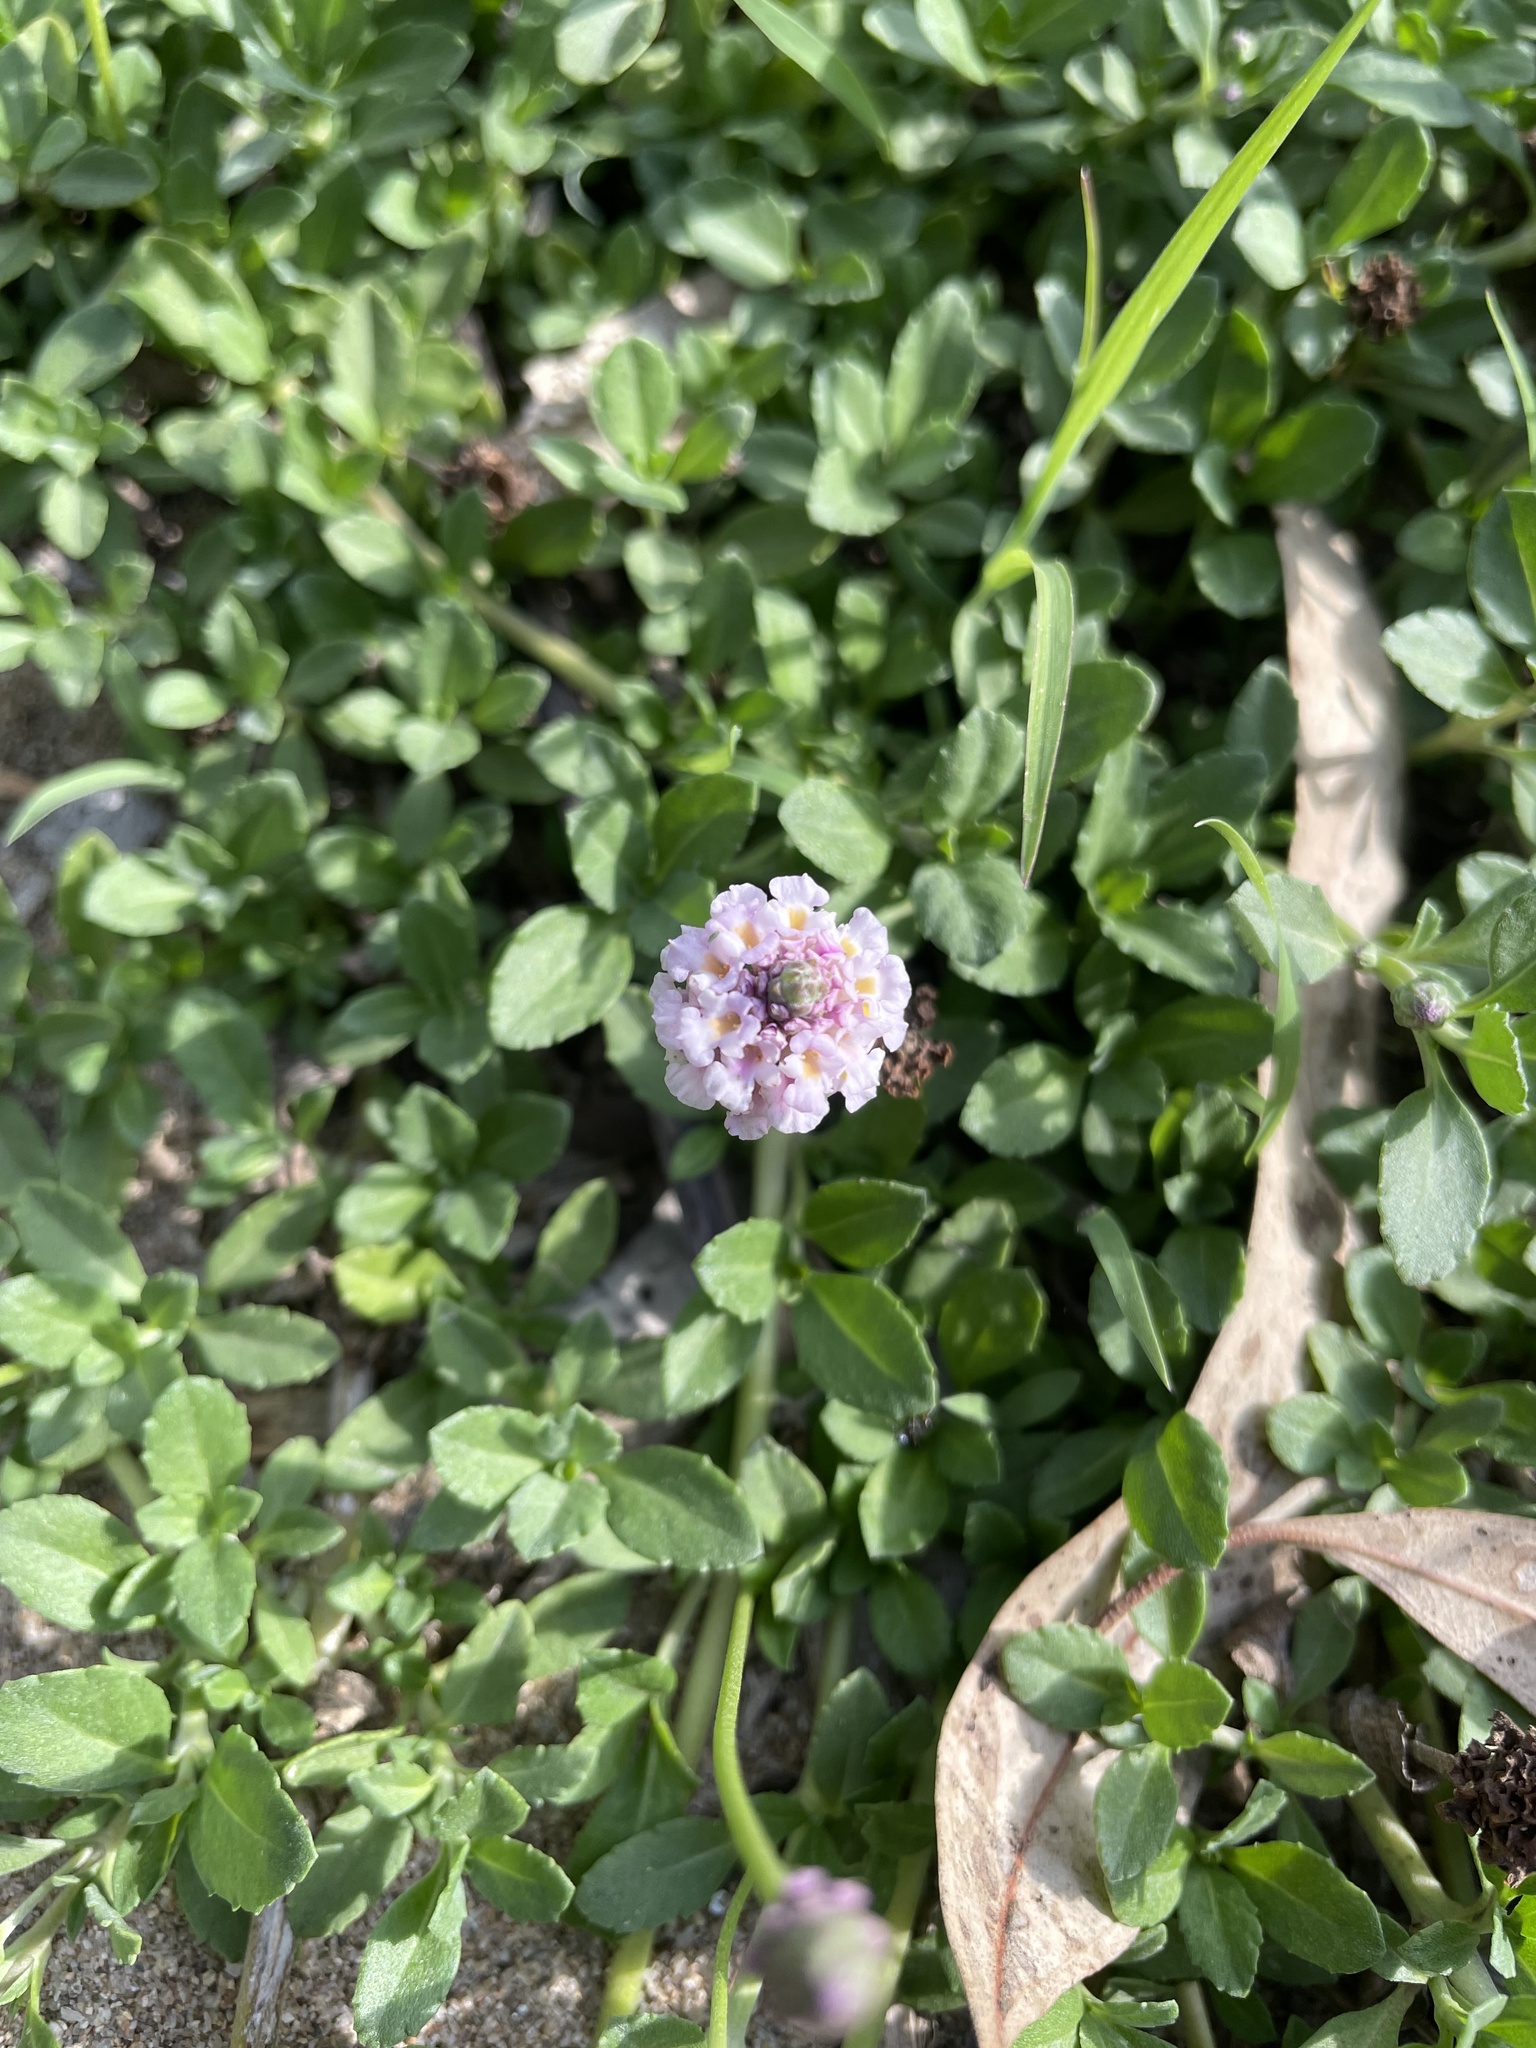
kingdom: Plantae
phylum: Tracheophyta
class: Magnoliopsida
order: Lamiales
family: Verbenaceae
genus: Phyla
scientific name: Phyla nodiflora
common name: Frogfruit
